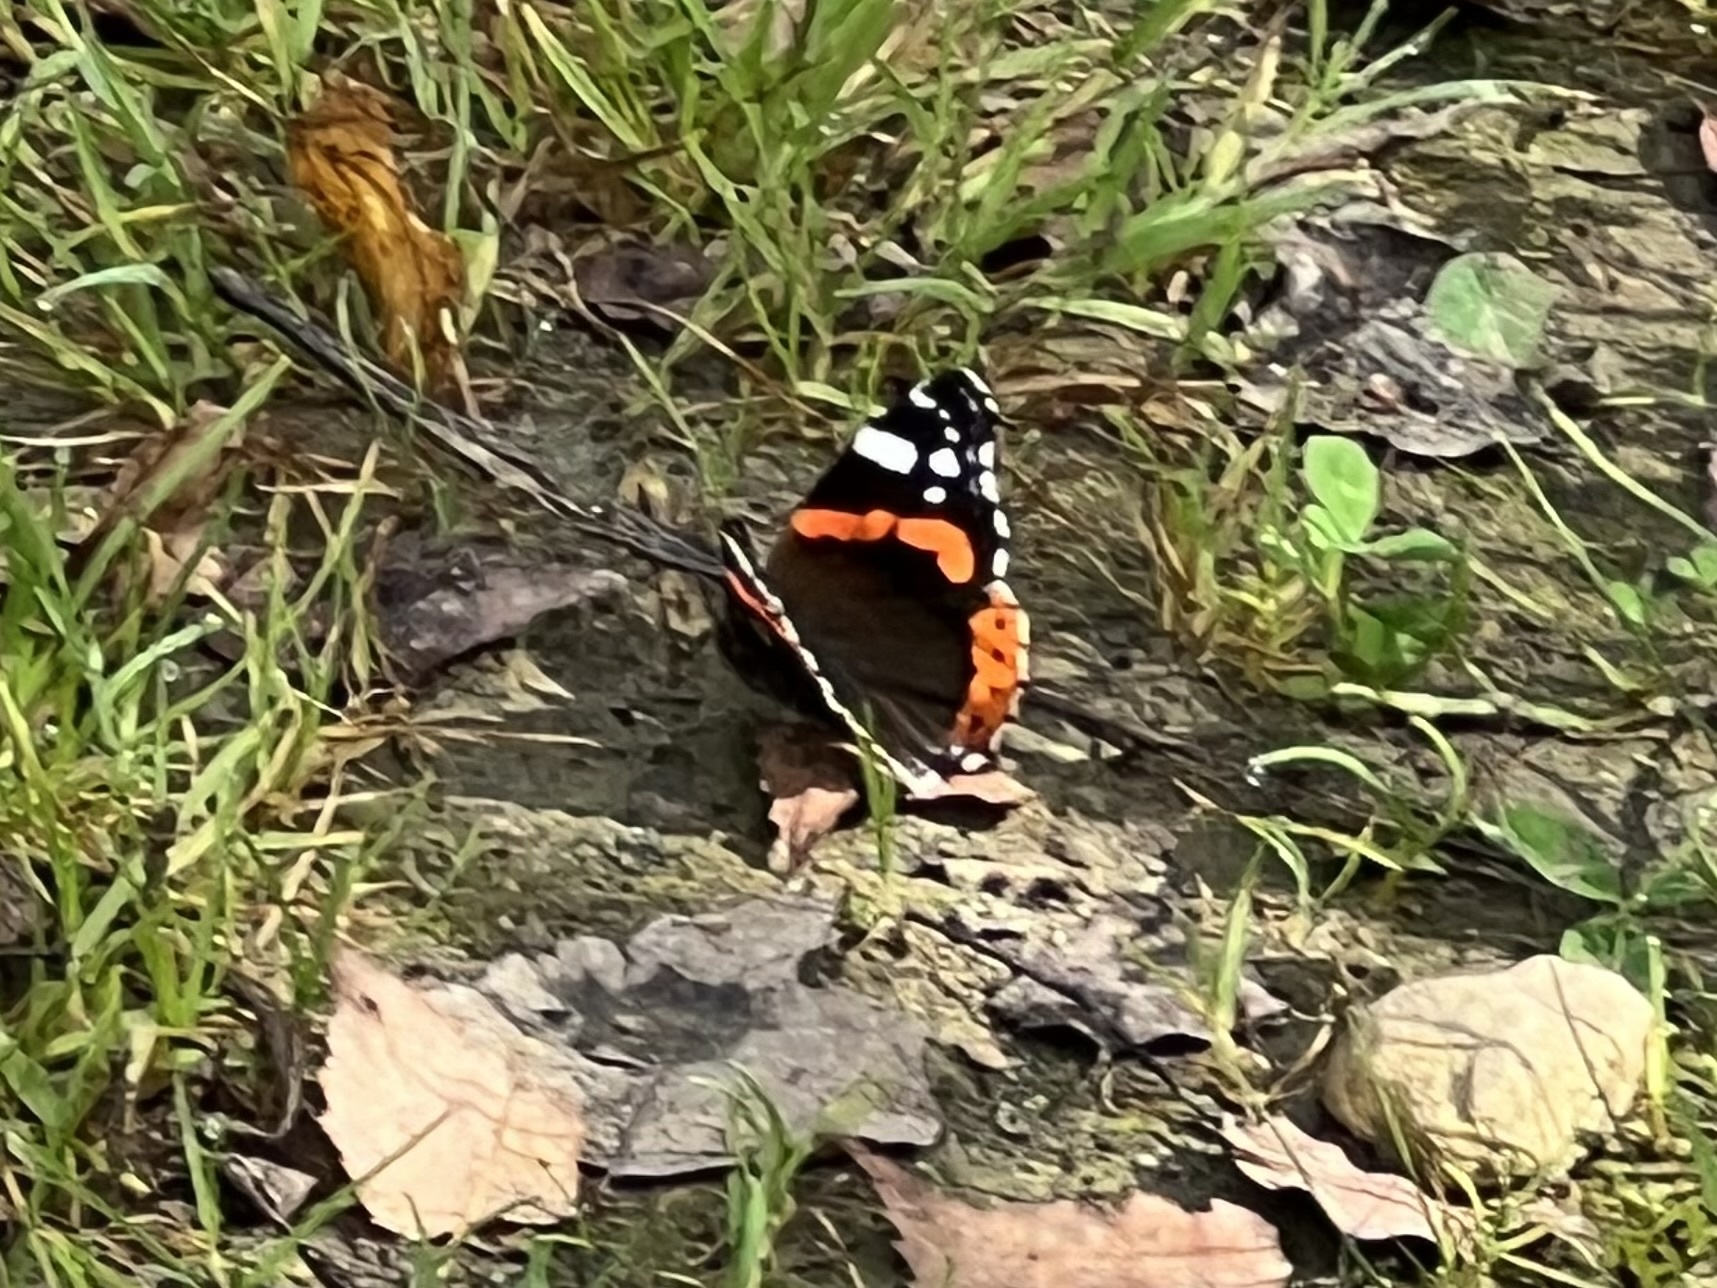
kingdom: Animalia
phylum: Arthropoda
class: Insecta
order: Lepidoptera
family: Nymphalidae
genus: Vanessa
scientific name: Vanessa atalanta
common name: Red admiral
